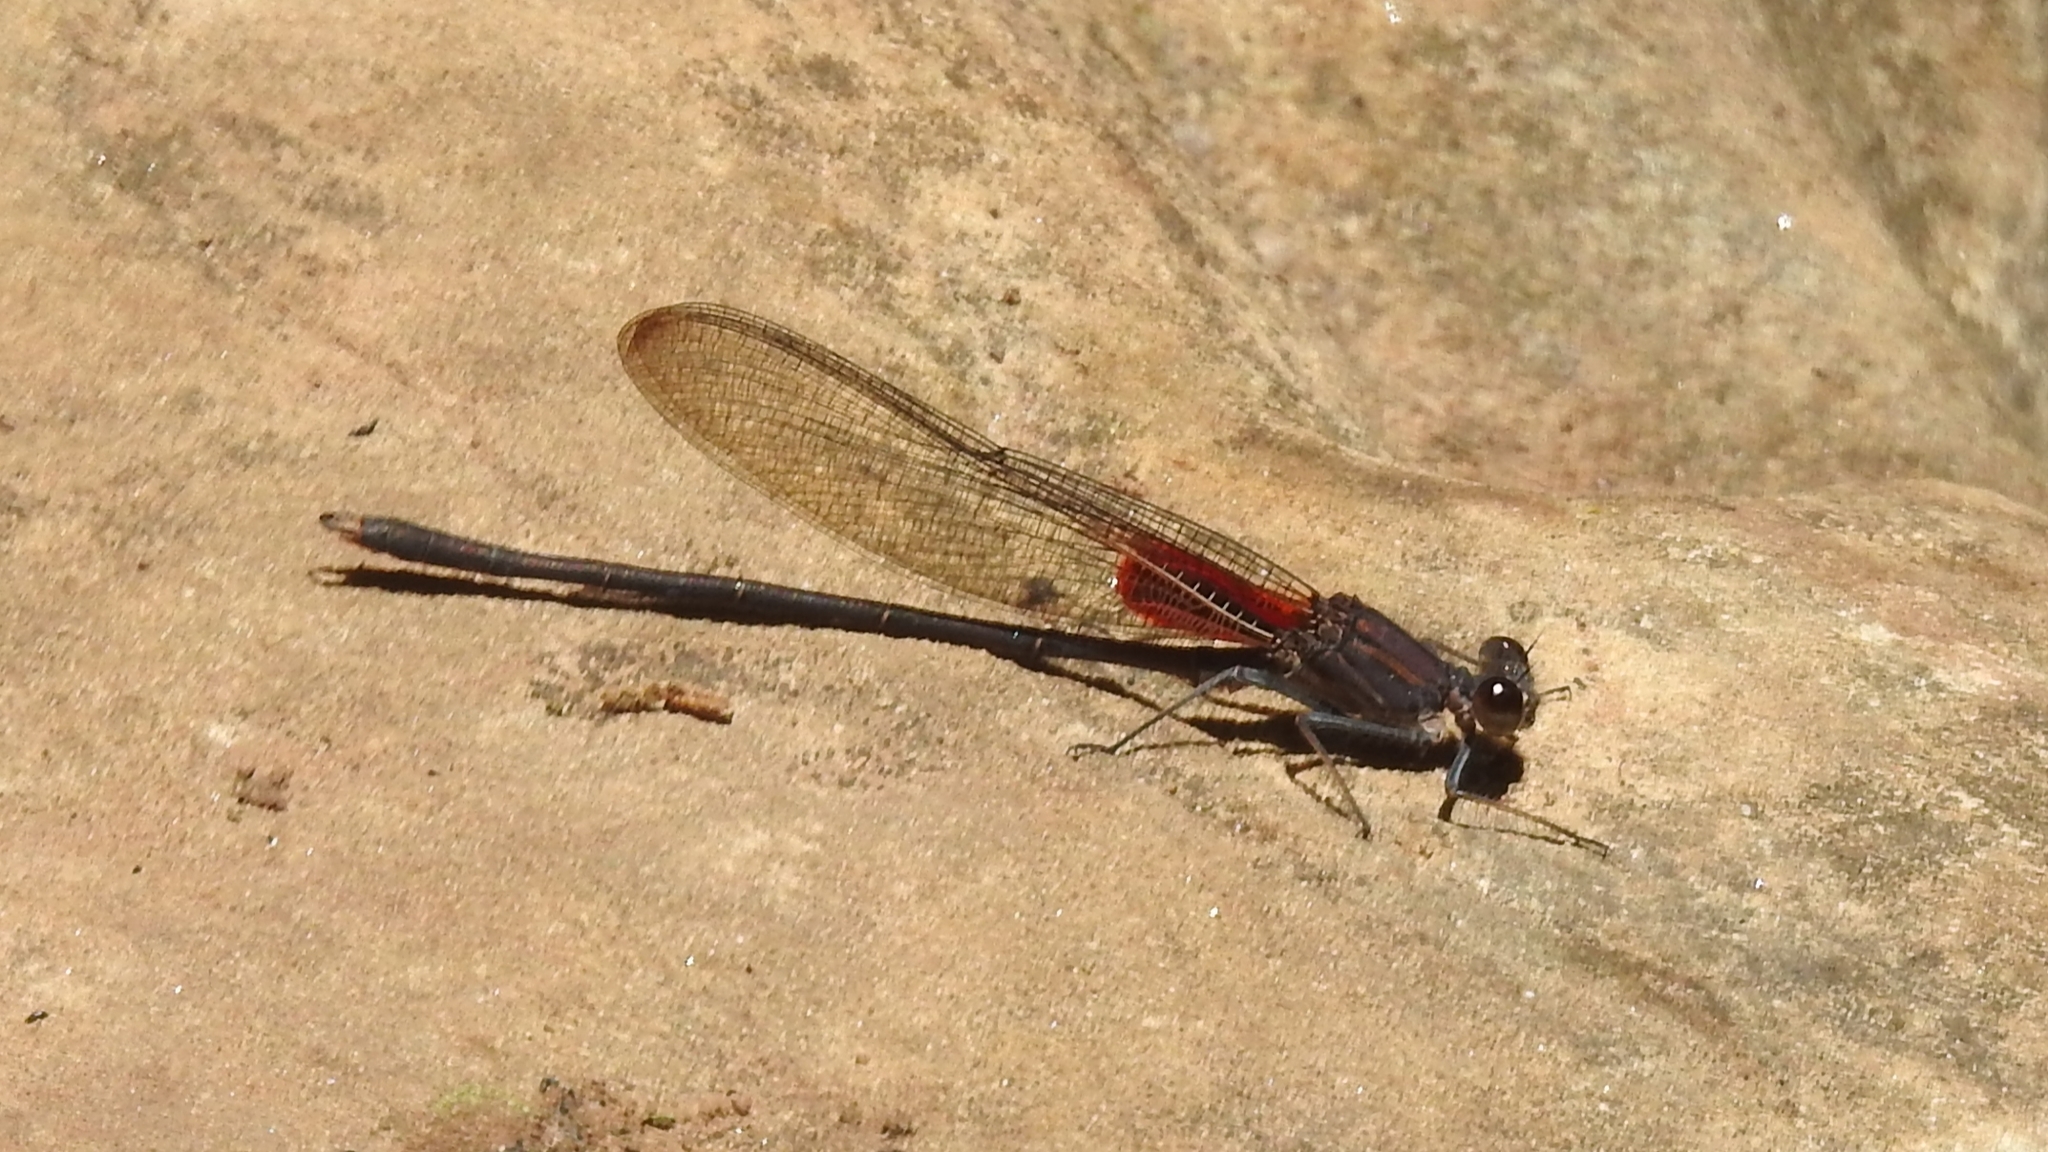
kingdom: Animalia
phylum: Arthropoda
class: Insecta
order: Odonata
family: Calopterygidae
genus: Hetaerina
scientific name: Hetaerina vulnerata
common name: Canyon rubyspot
